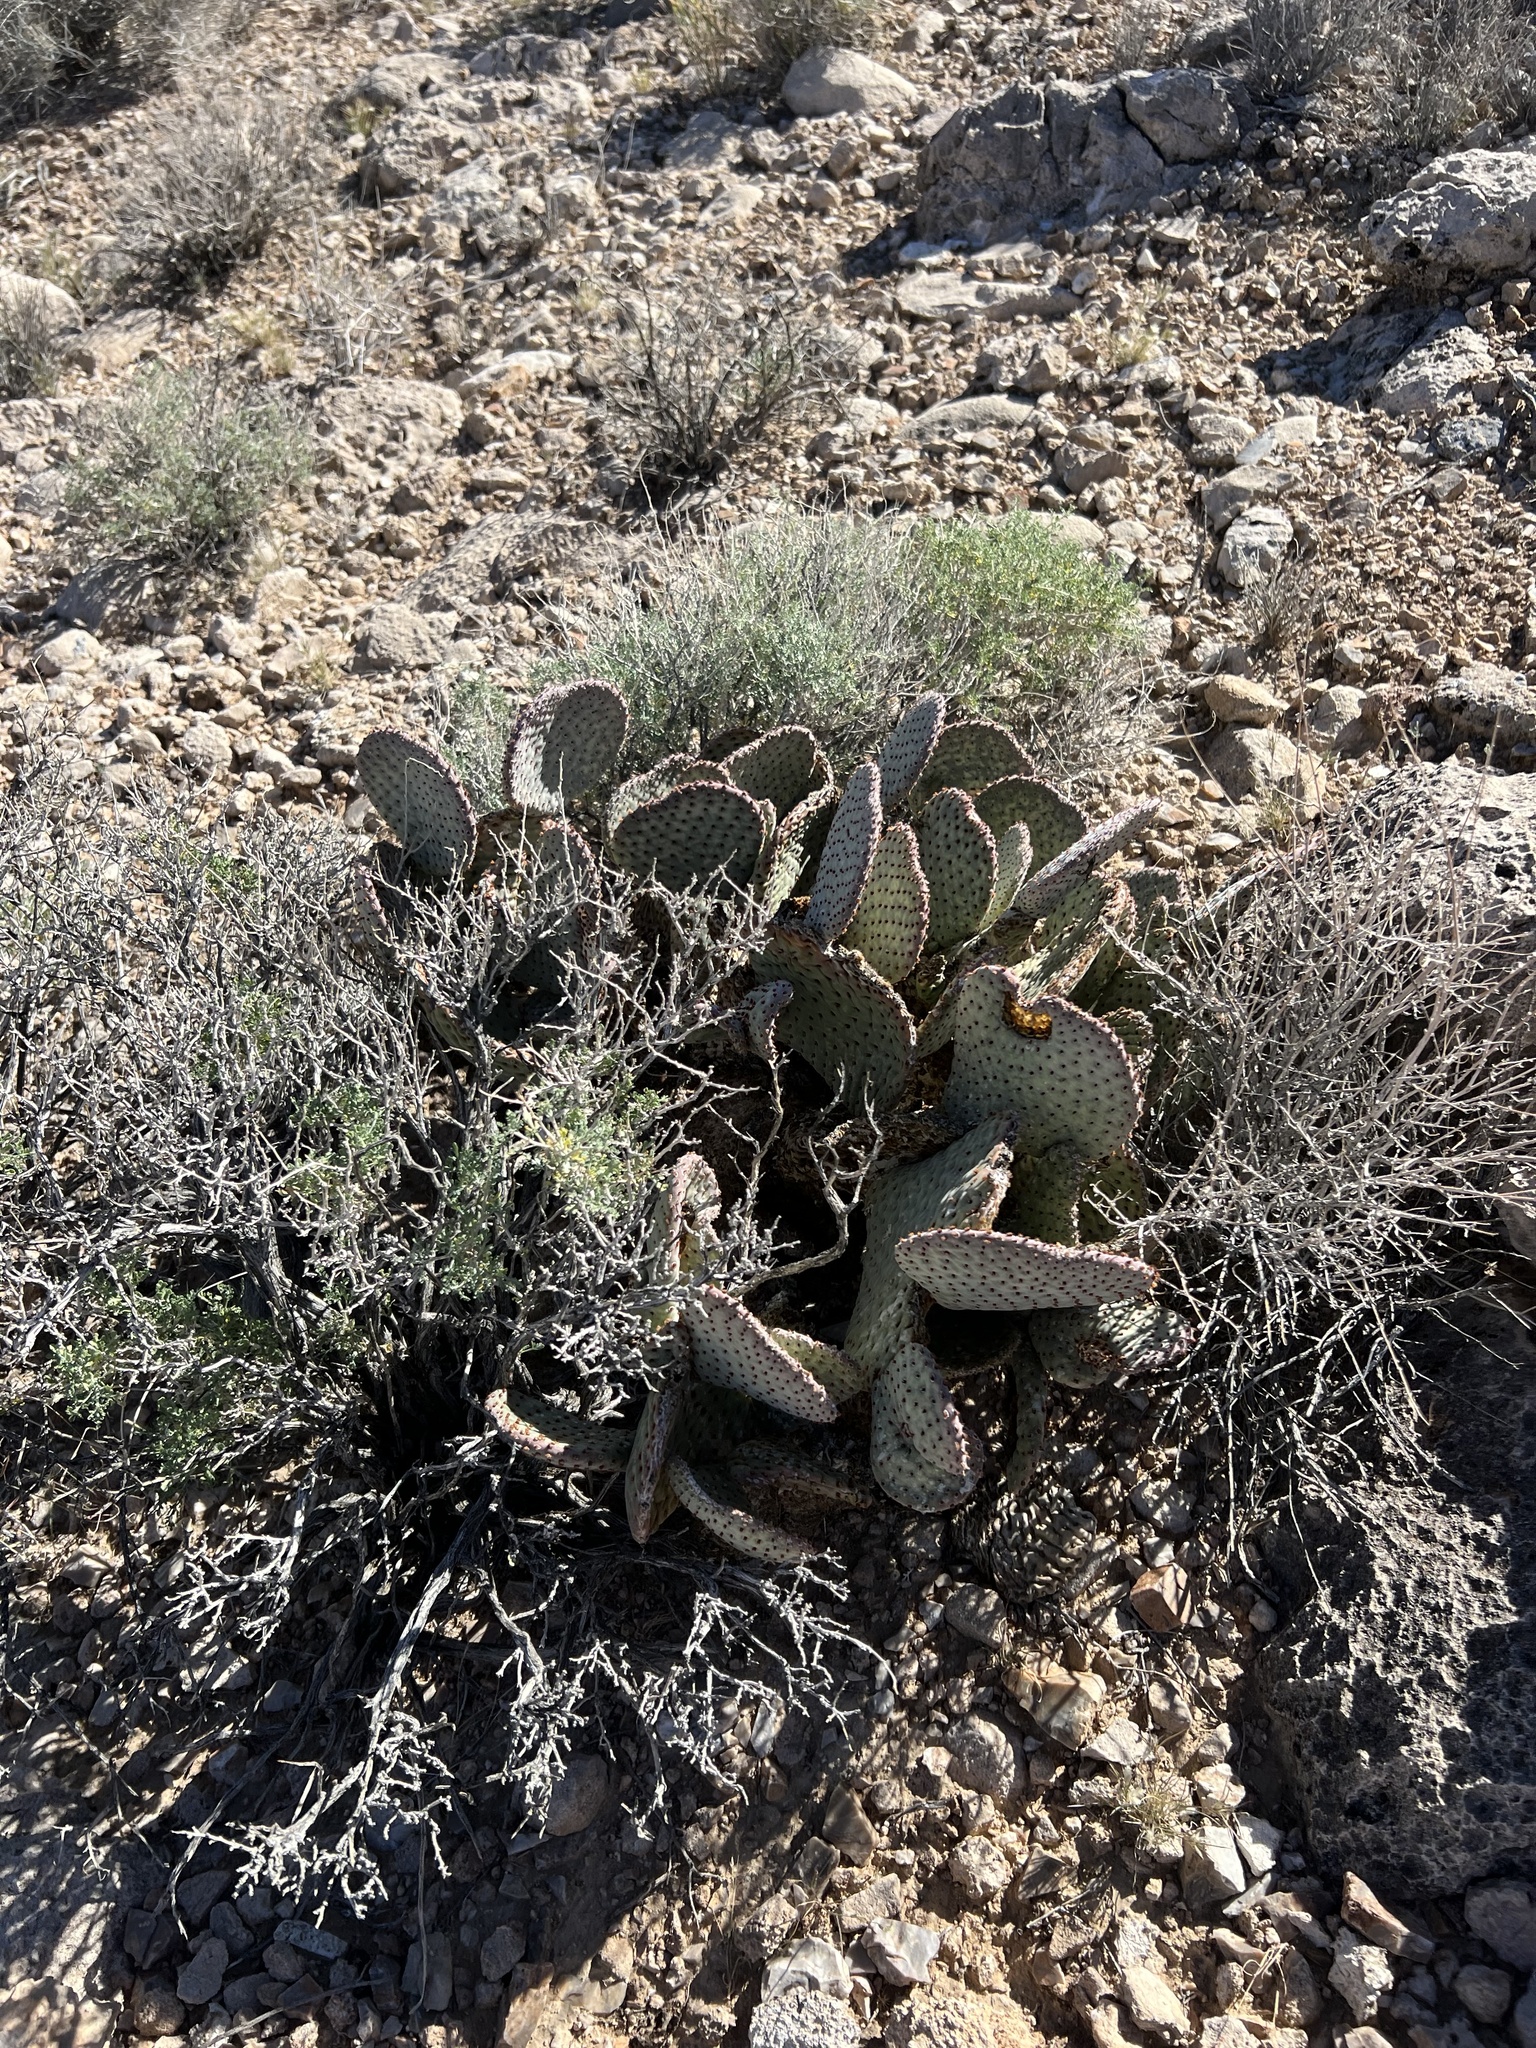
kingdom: Plantae
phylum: Tracheophyta
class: Magnoliopsida
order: Caryophyllales
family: Cactaceae
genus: Opuntia
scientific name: Opuntia basilaris
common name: Beavertail prickly-pear
